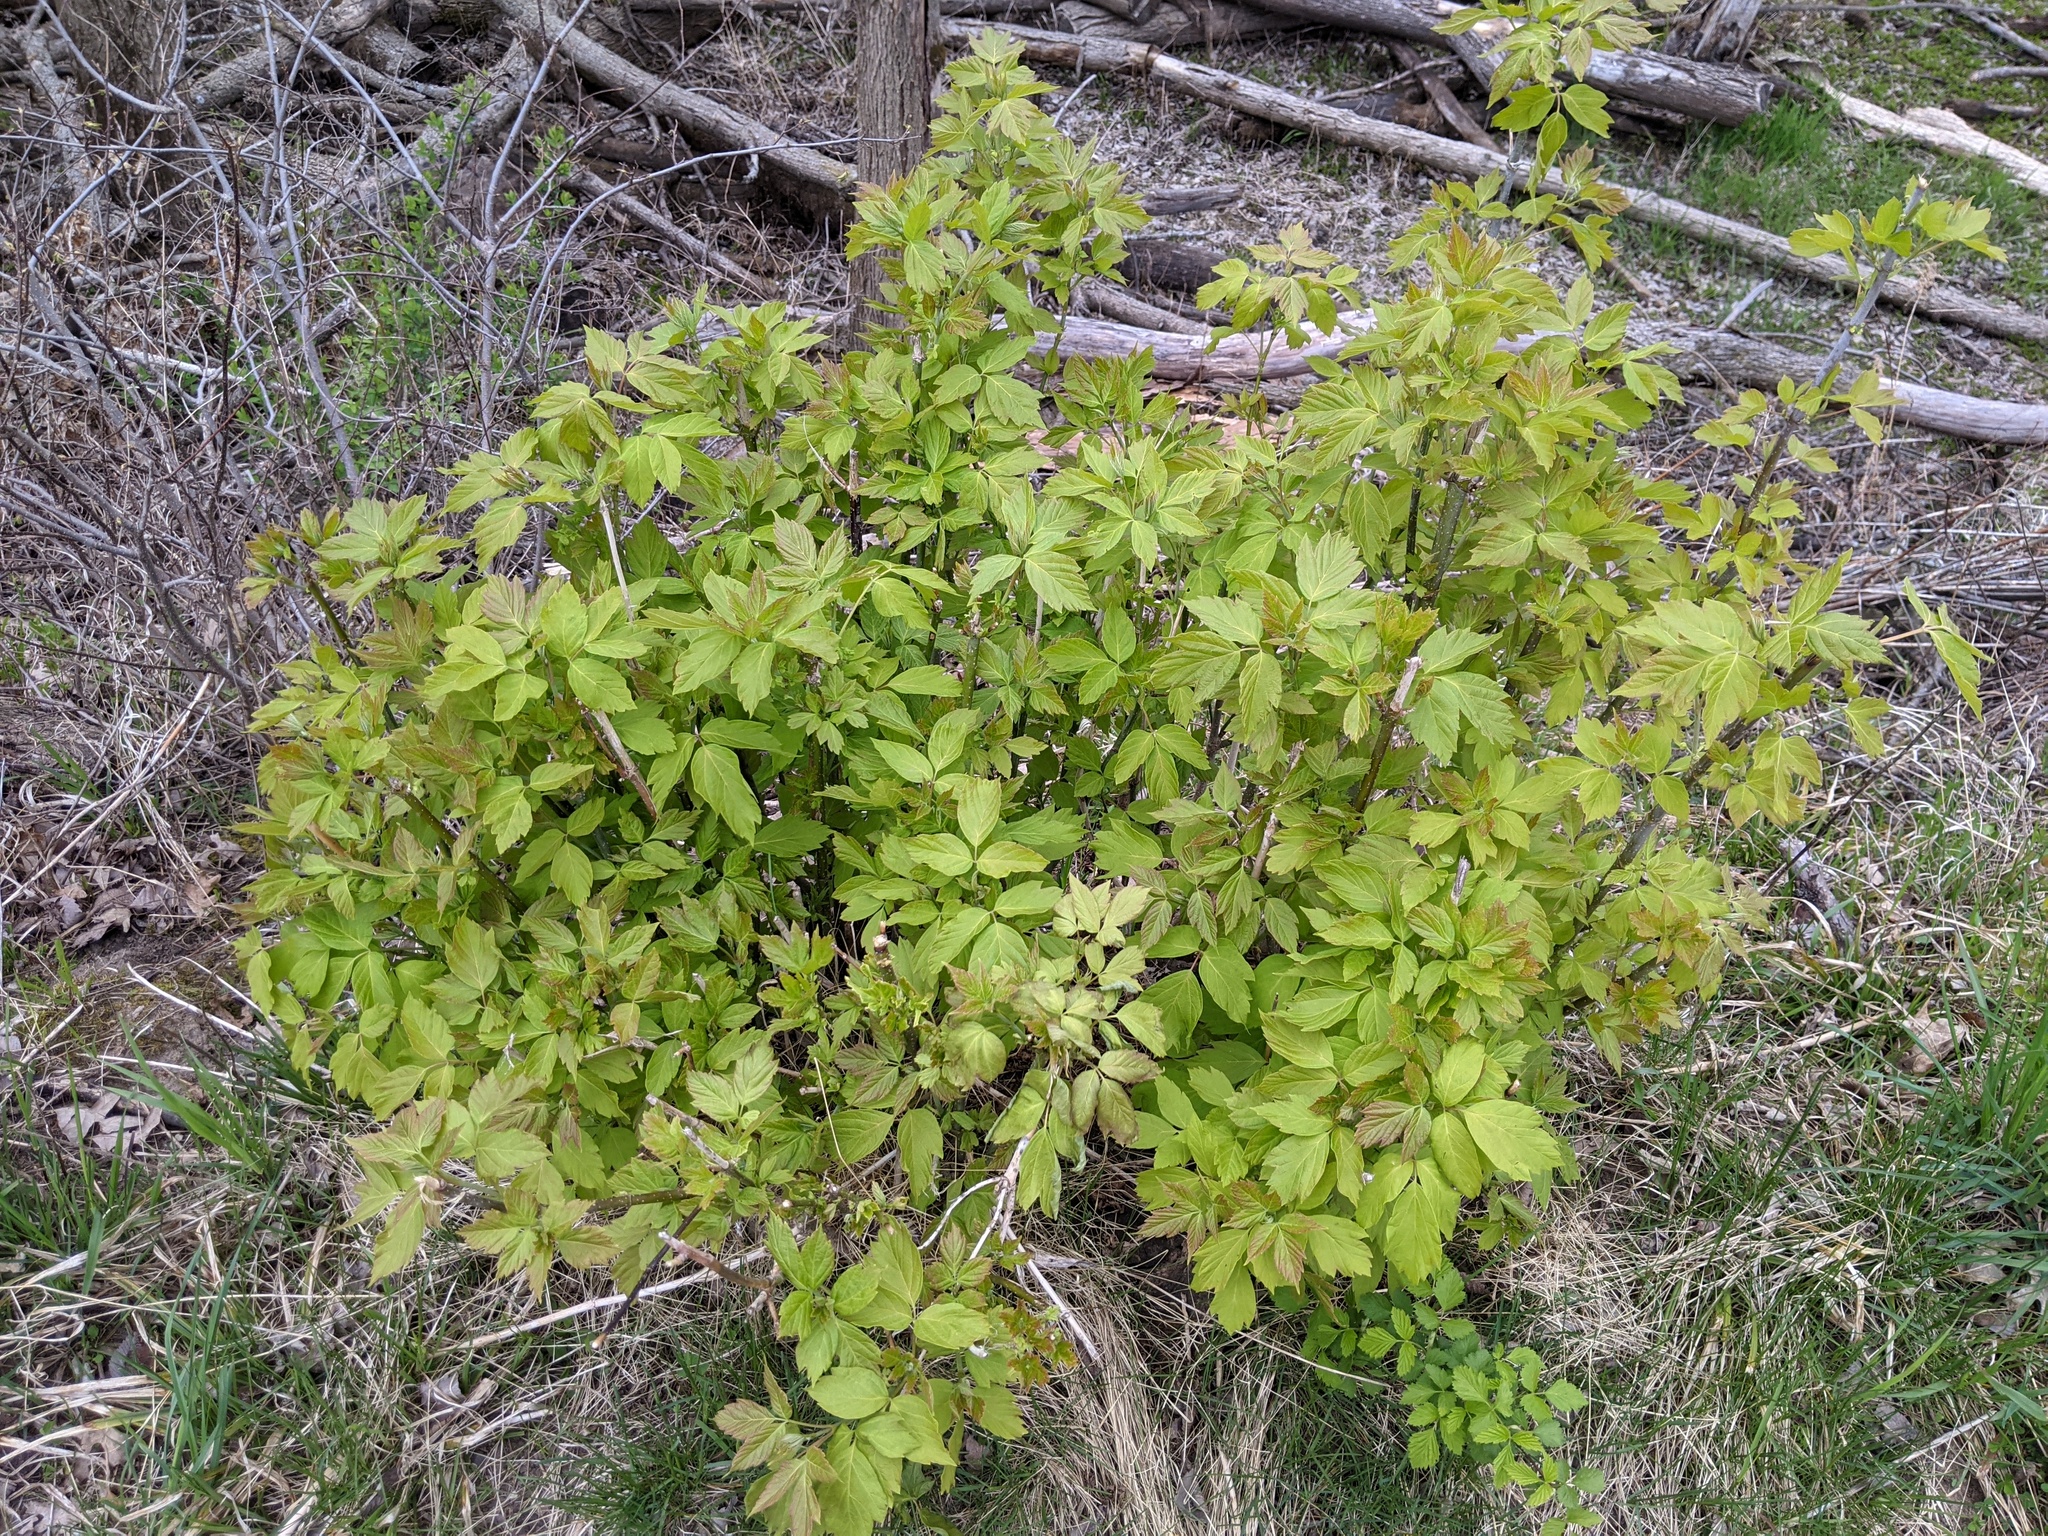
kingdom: Plantae
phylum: Tracheophyta
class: Magnoliopsida
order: Sapindales
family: Sapindaceae
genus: Acer
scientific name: Acer negundo
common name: Ashleaf maple
